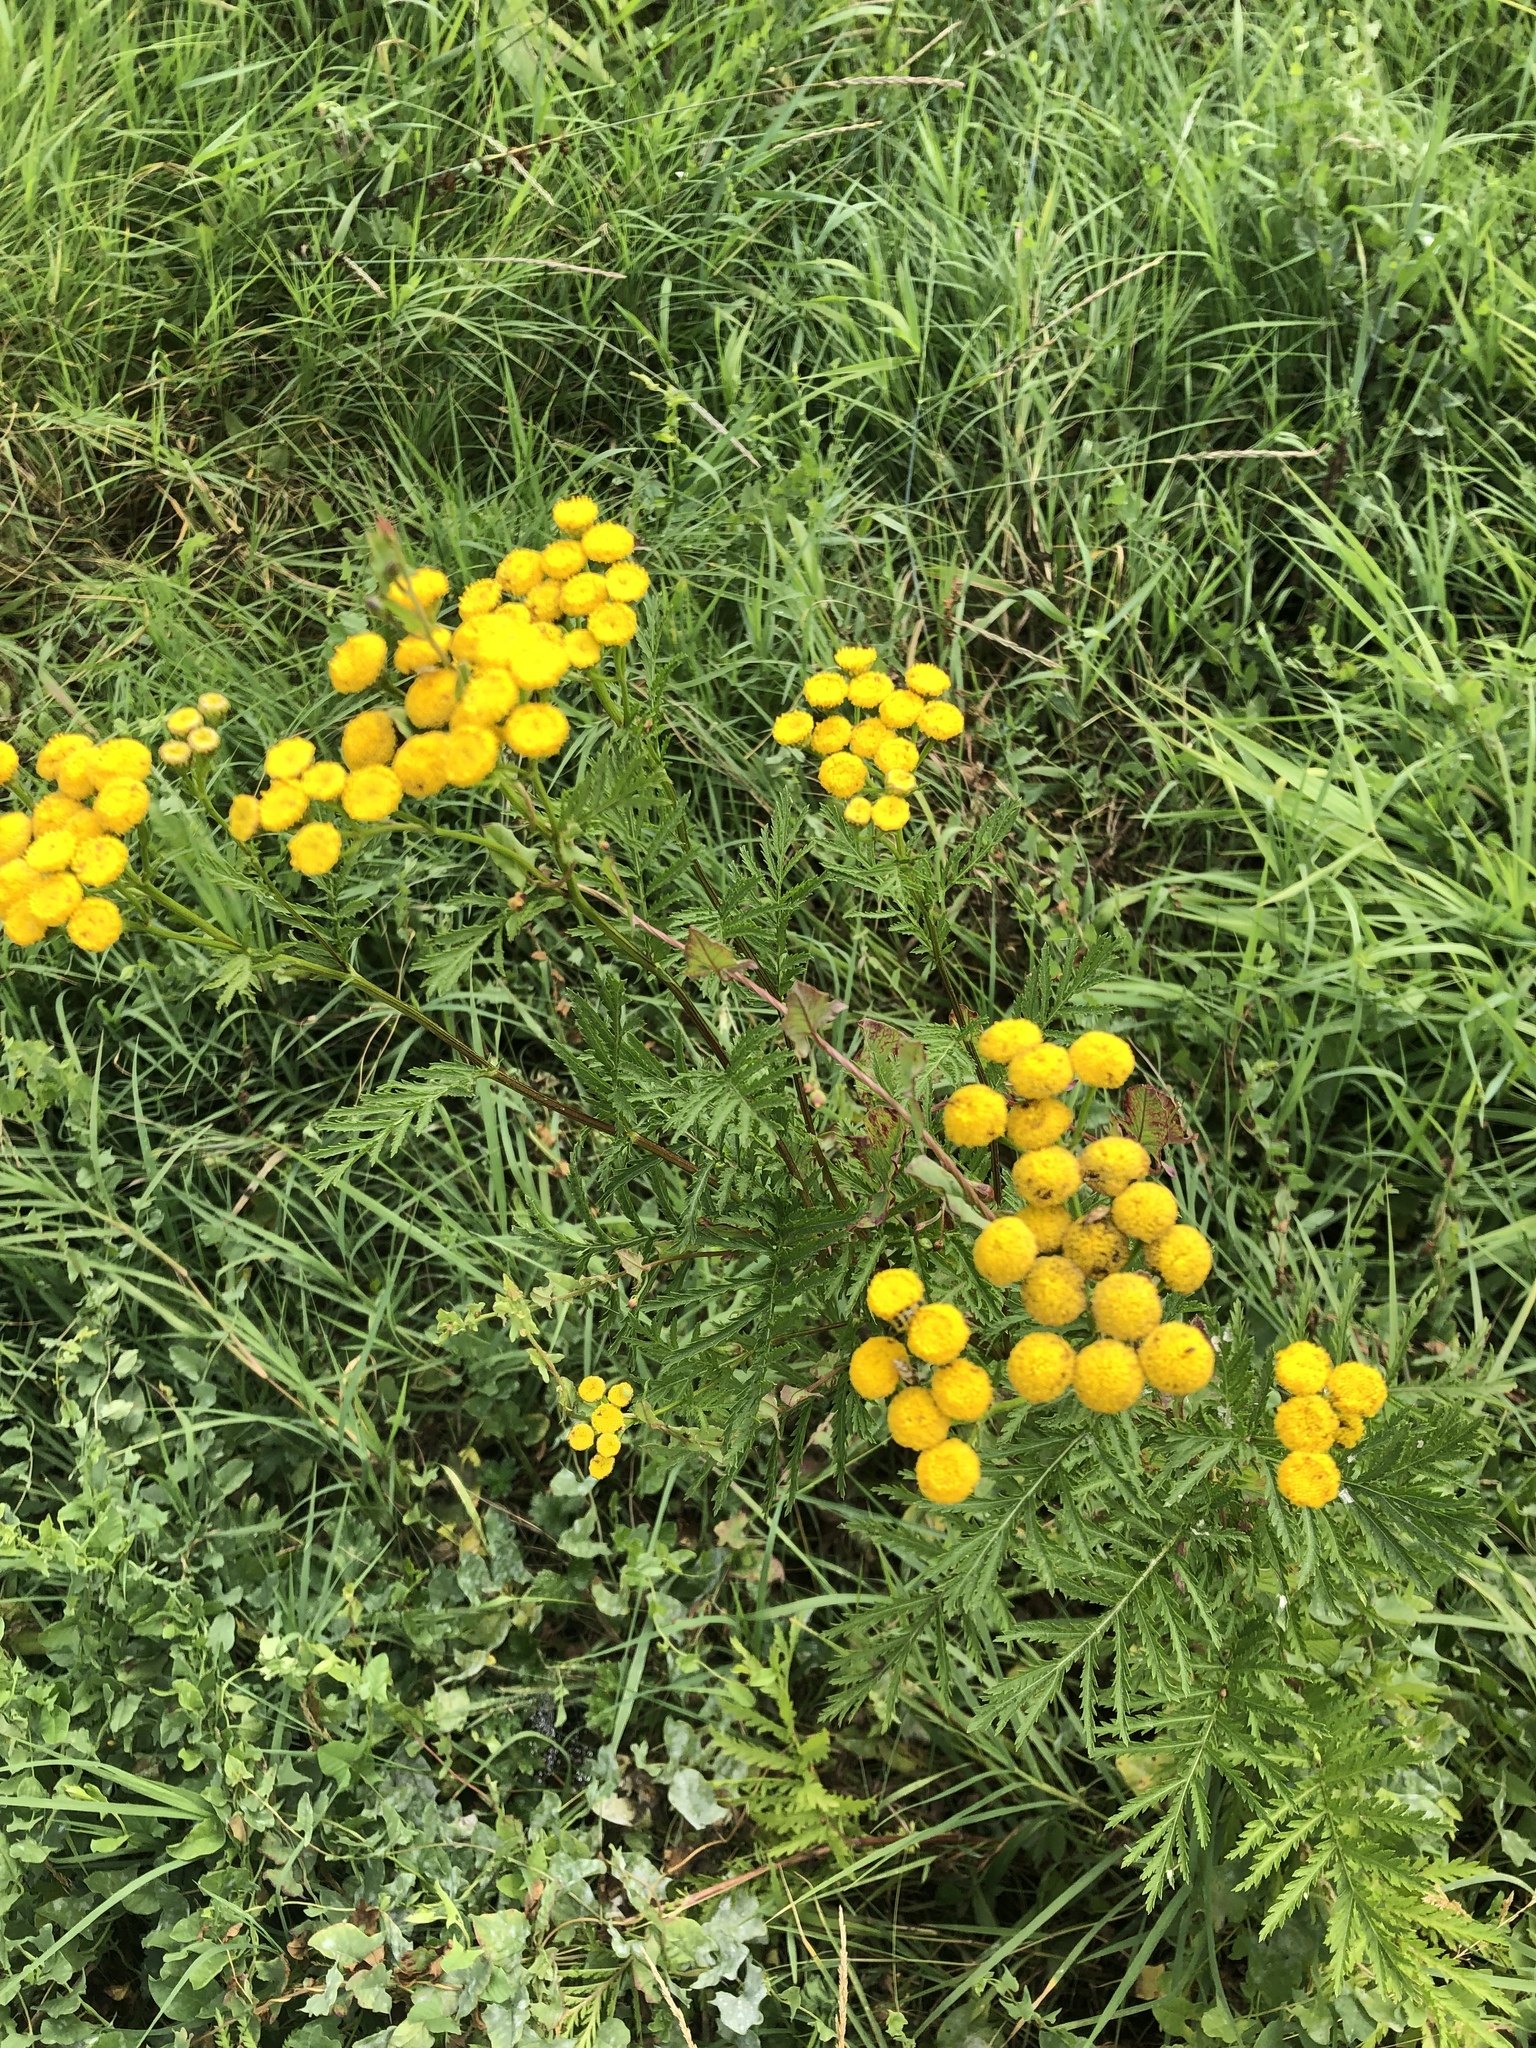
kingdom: Plantae
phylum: Tracheophyta
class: Magnoliopsida
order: Asterales
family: Asteraceae
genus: Tanacetum
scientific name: Tanacetum vulgare
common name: Common tansy
